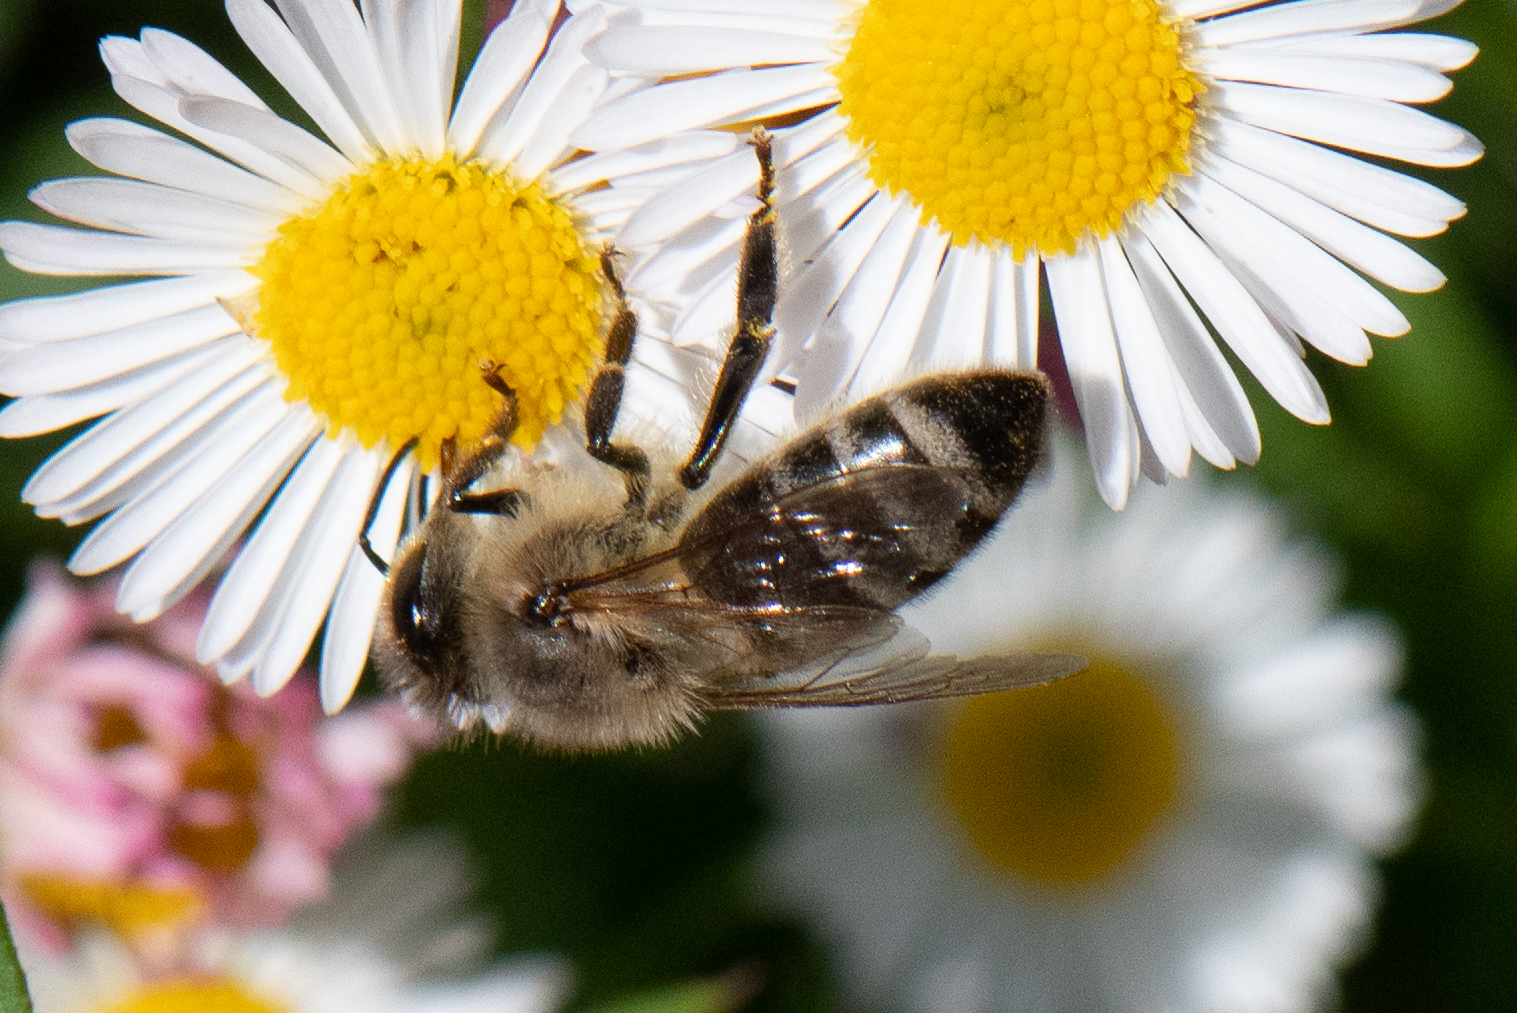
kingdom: Animalia
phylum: Arthropoda
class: Insecta
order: Hymenoptera
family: Apidae
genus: Apis
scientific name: Apis mellifera
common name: Honey bee
